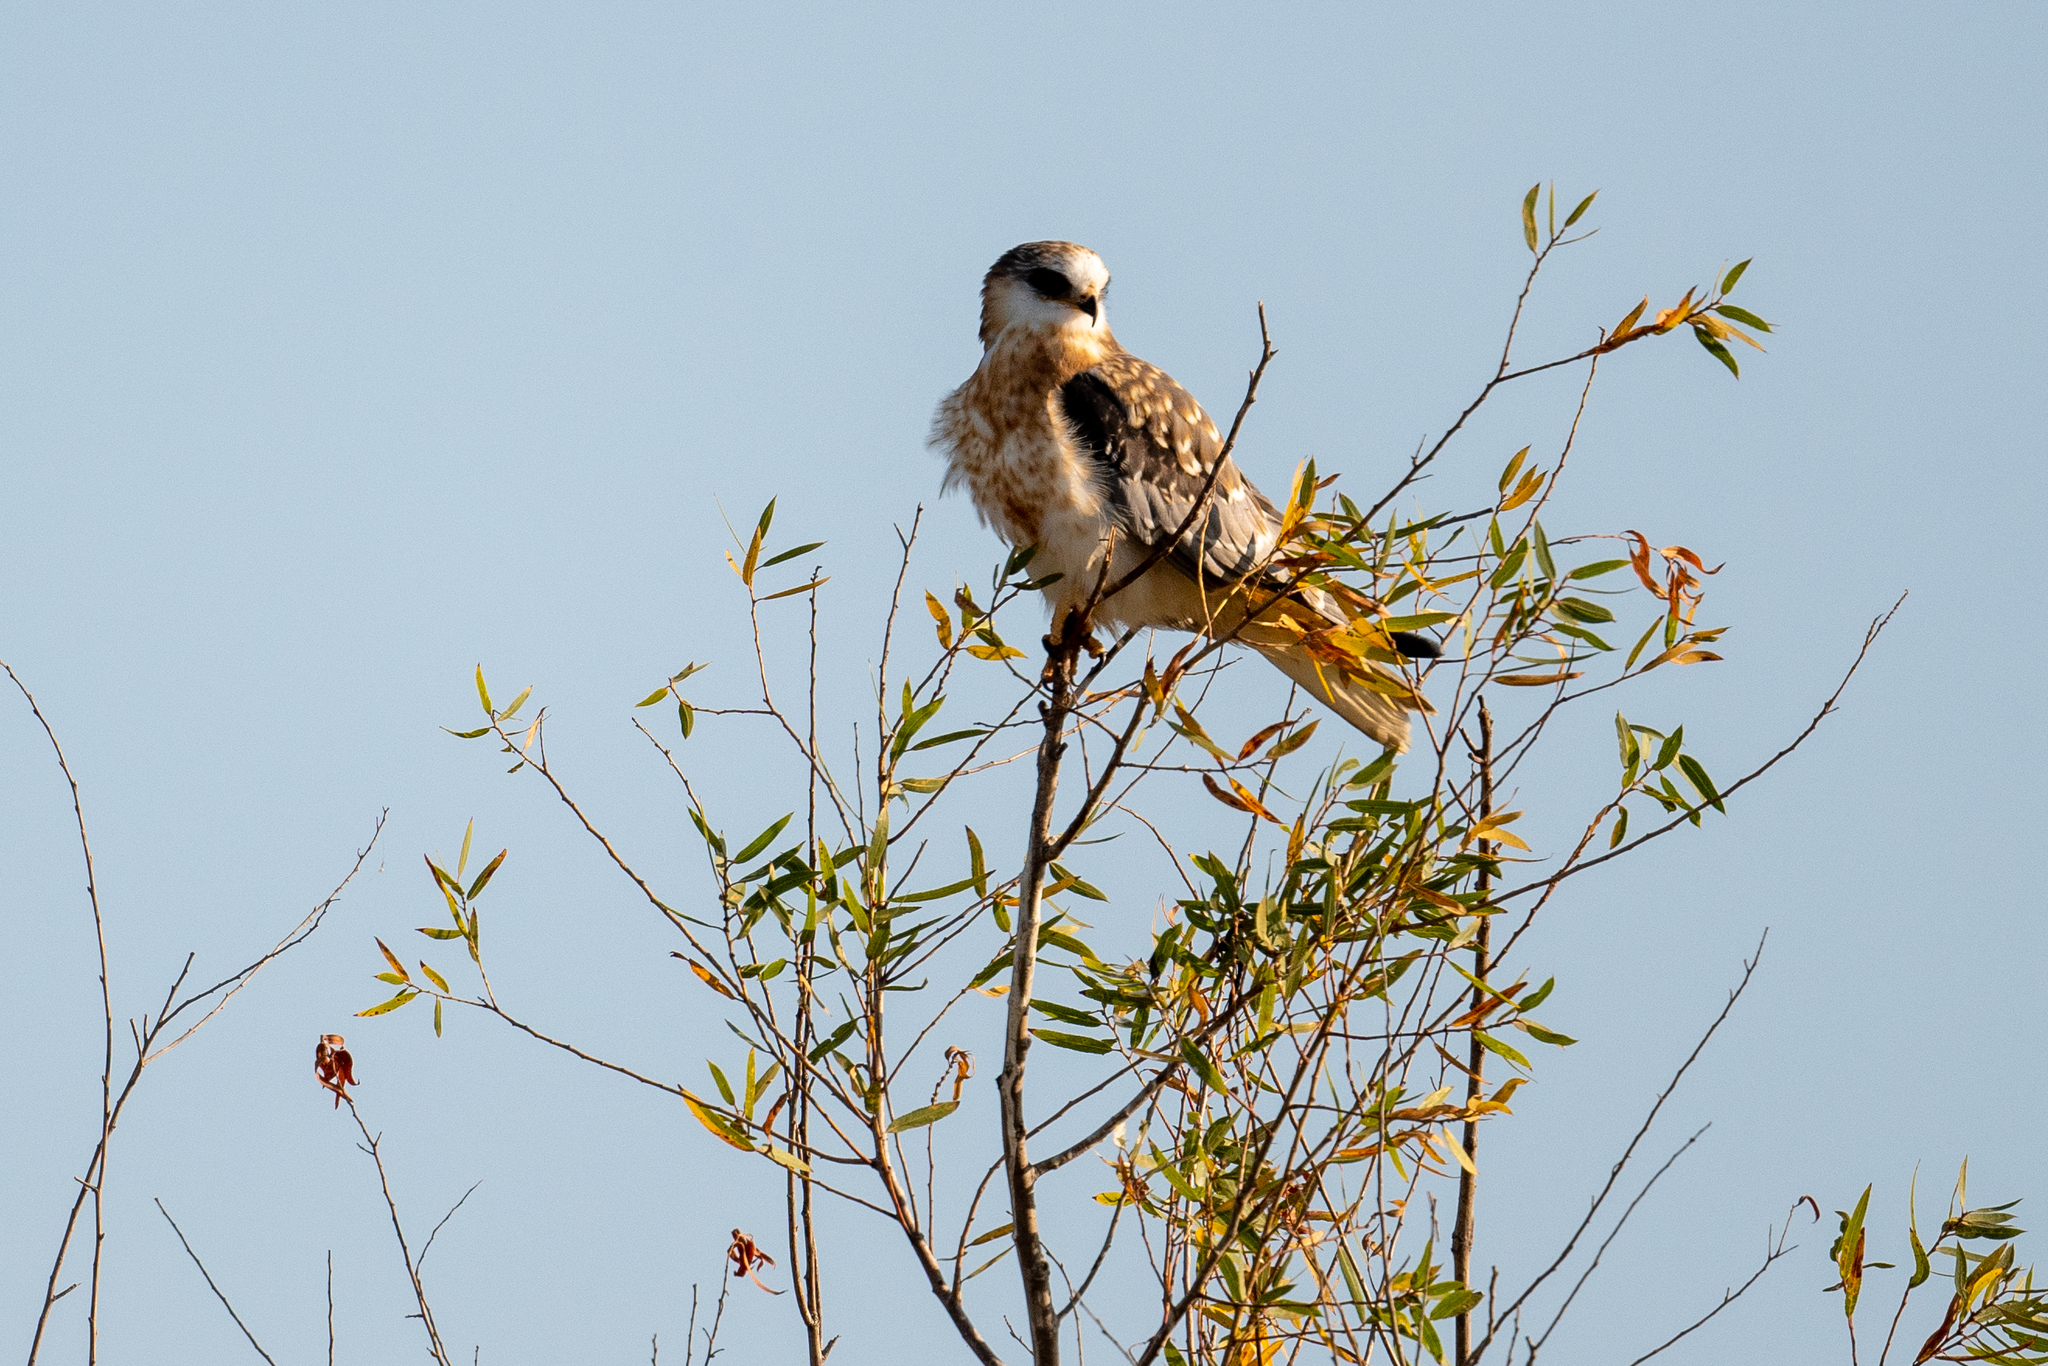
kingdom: Animalia
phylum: Chordata
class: Aves
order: Accipitriformes
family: Accipitridae
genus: Elanus
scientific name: Elanus leucurus
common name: White-tailed kite
